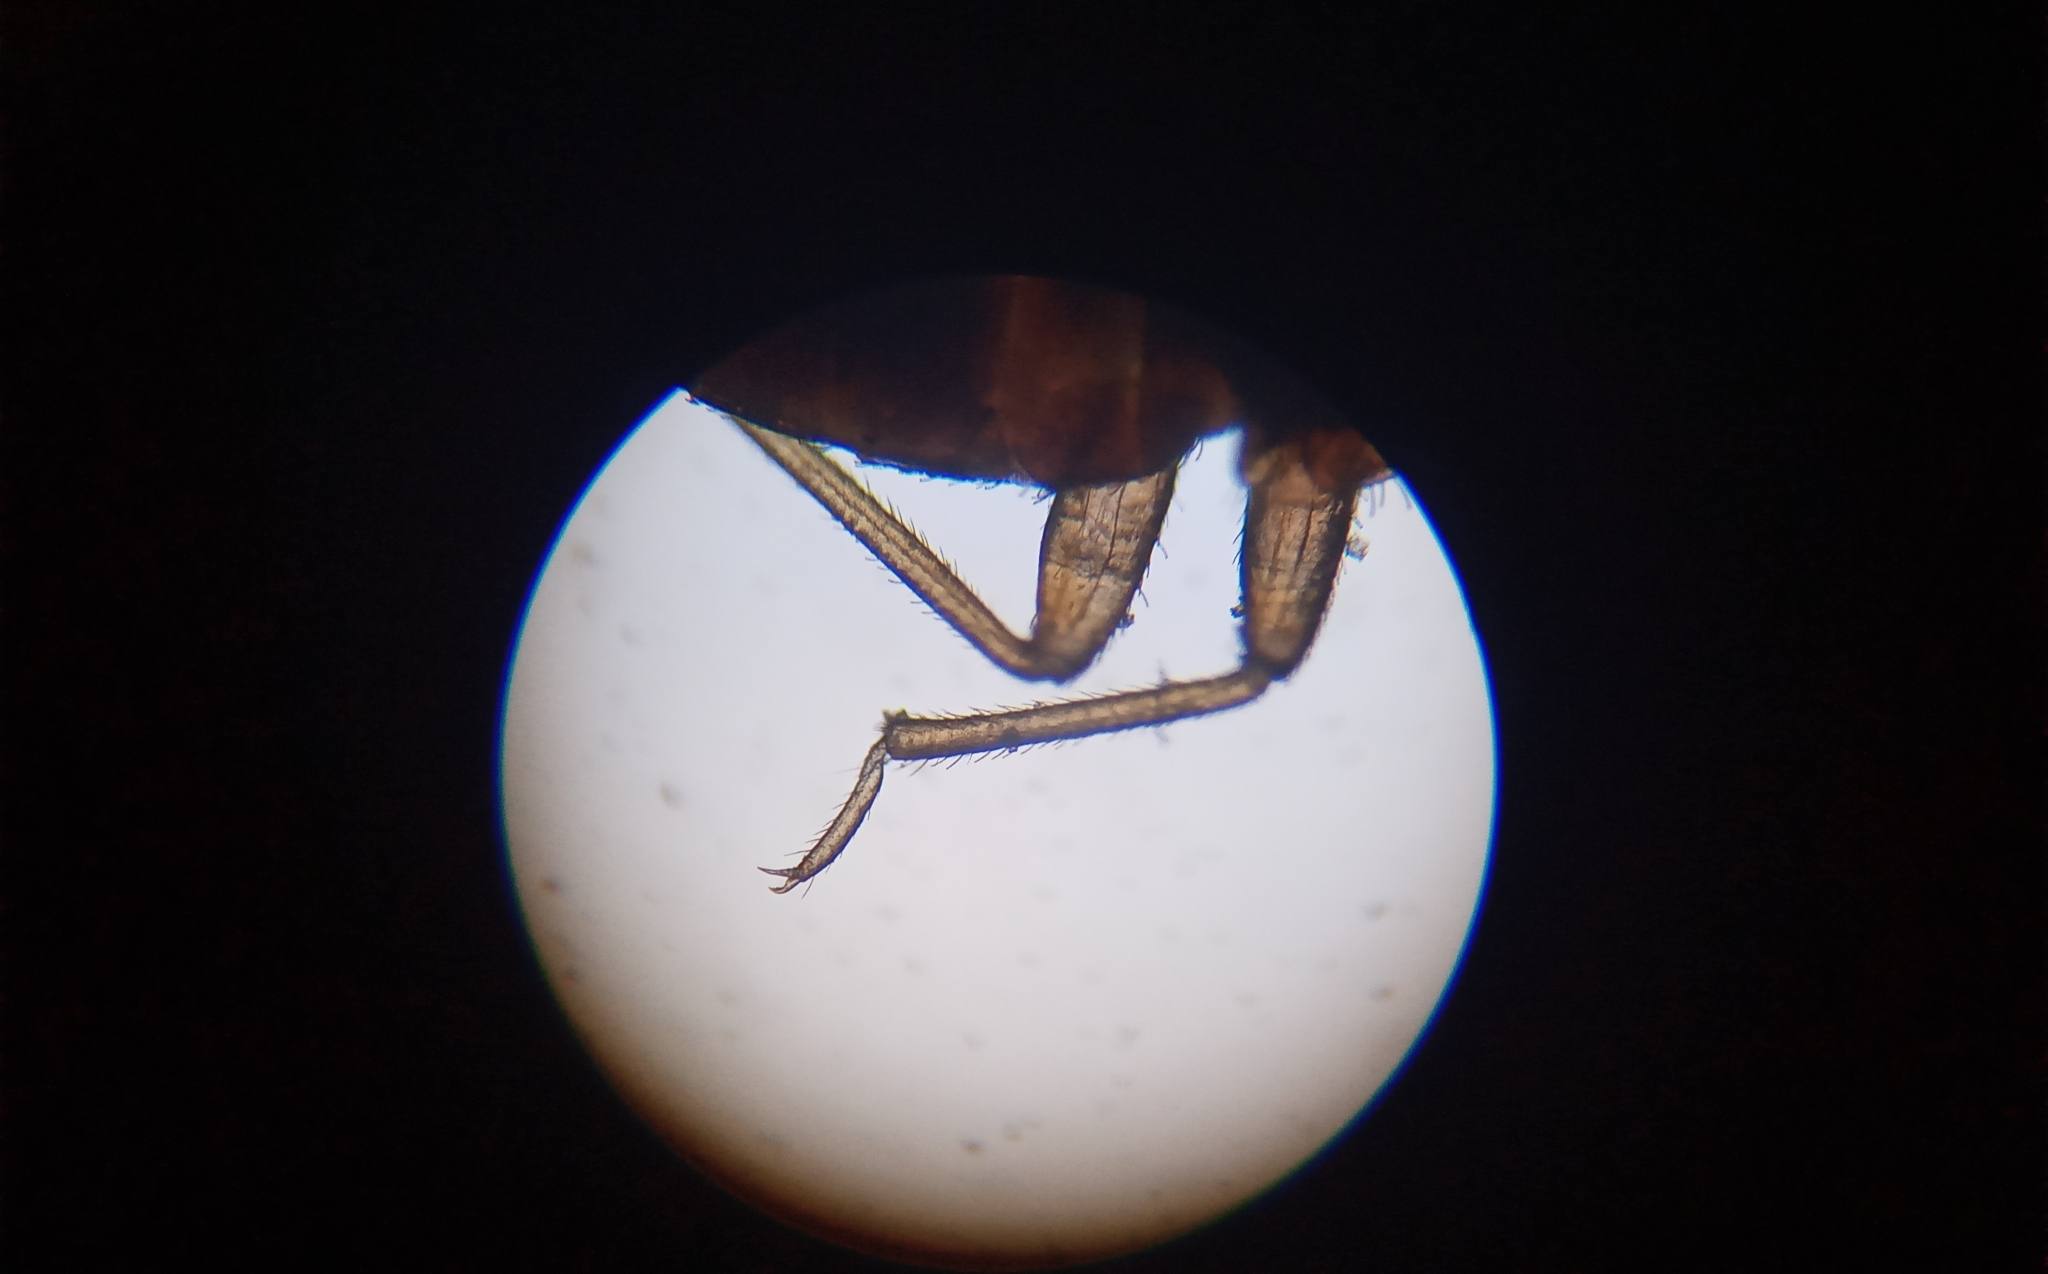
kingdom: Animalia
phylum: Arthropoda
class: Insecta
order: Hemiptera
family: Cimicidae
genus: Cimex
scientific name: Cimex lectularius
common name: Bed bug
